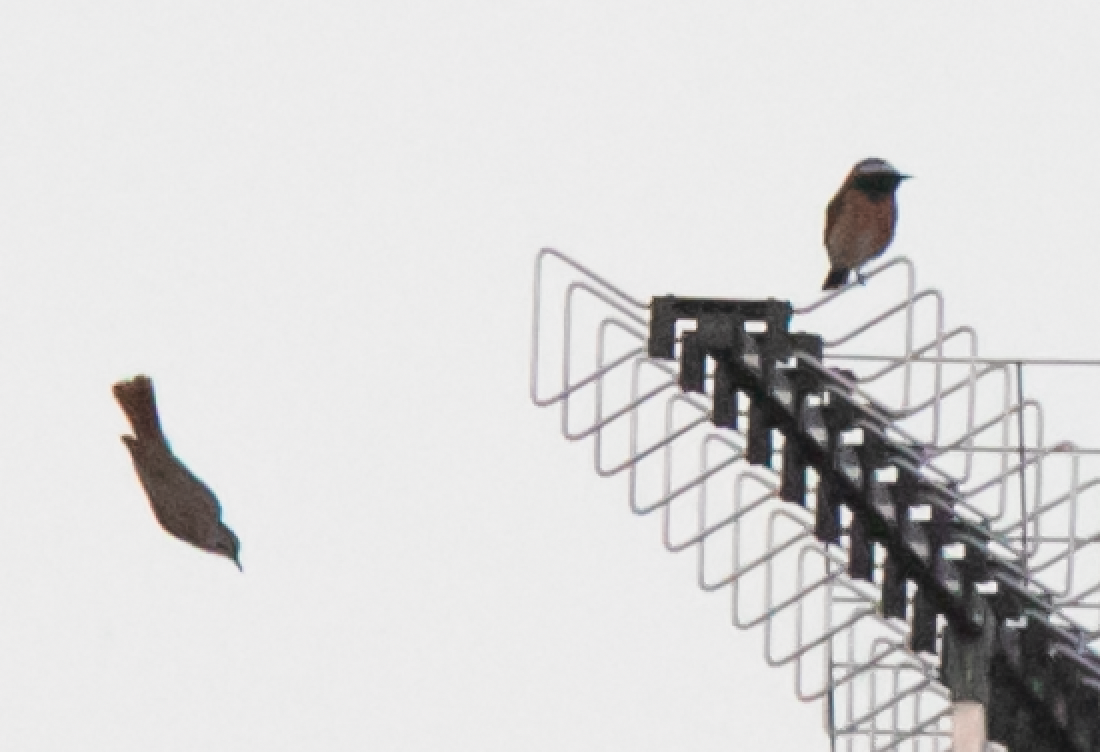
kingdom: Animalia
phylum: Chordata
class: Aves
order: Passeriformes
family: Muscicapidae
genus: Phoenicurus
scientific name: Phoenicurus phoenicurus
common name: Common redstart
